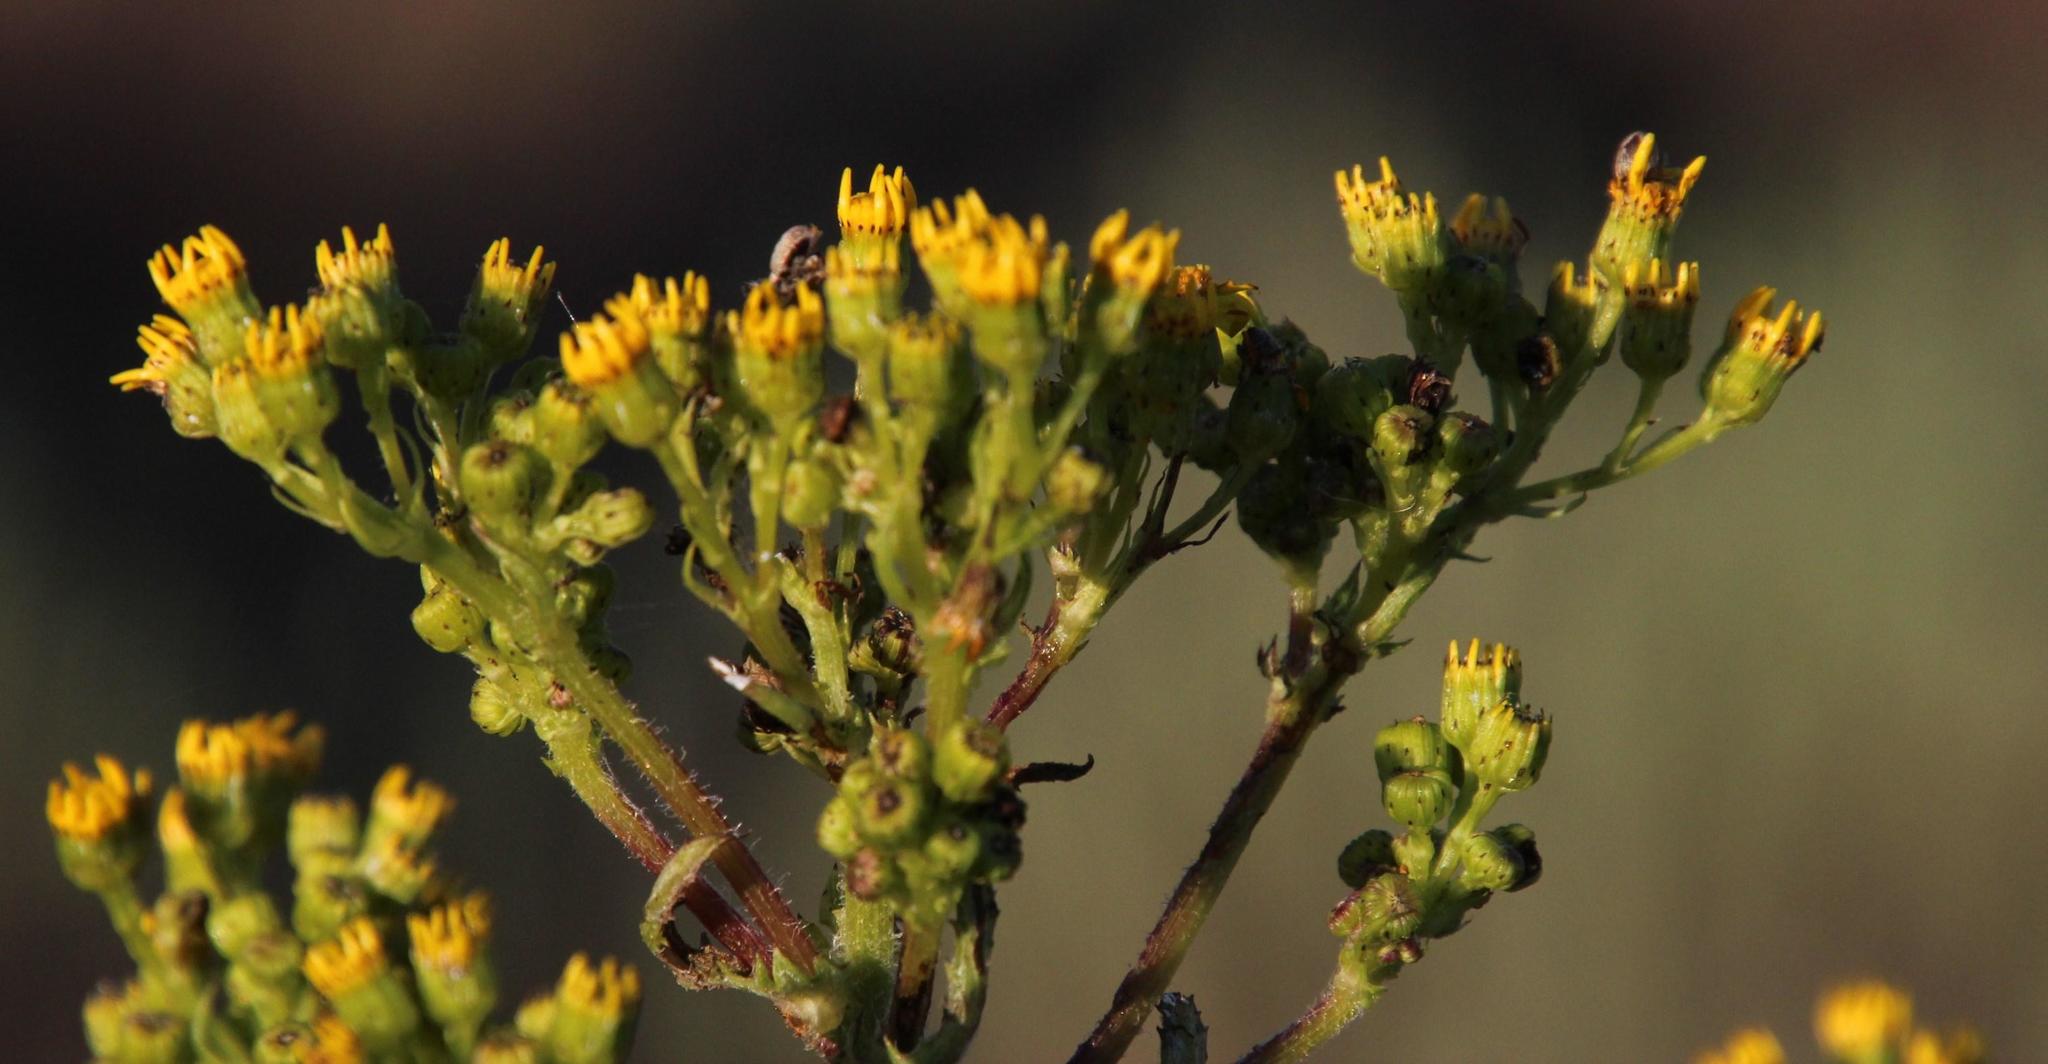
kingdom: Plantae
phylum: Tracheophyta
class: Magnoliopsida
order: Asterales
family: Asteraceae
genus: Senecio
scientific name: Senecio subcanescens
